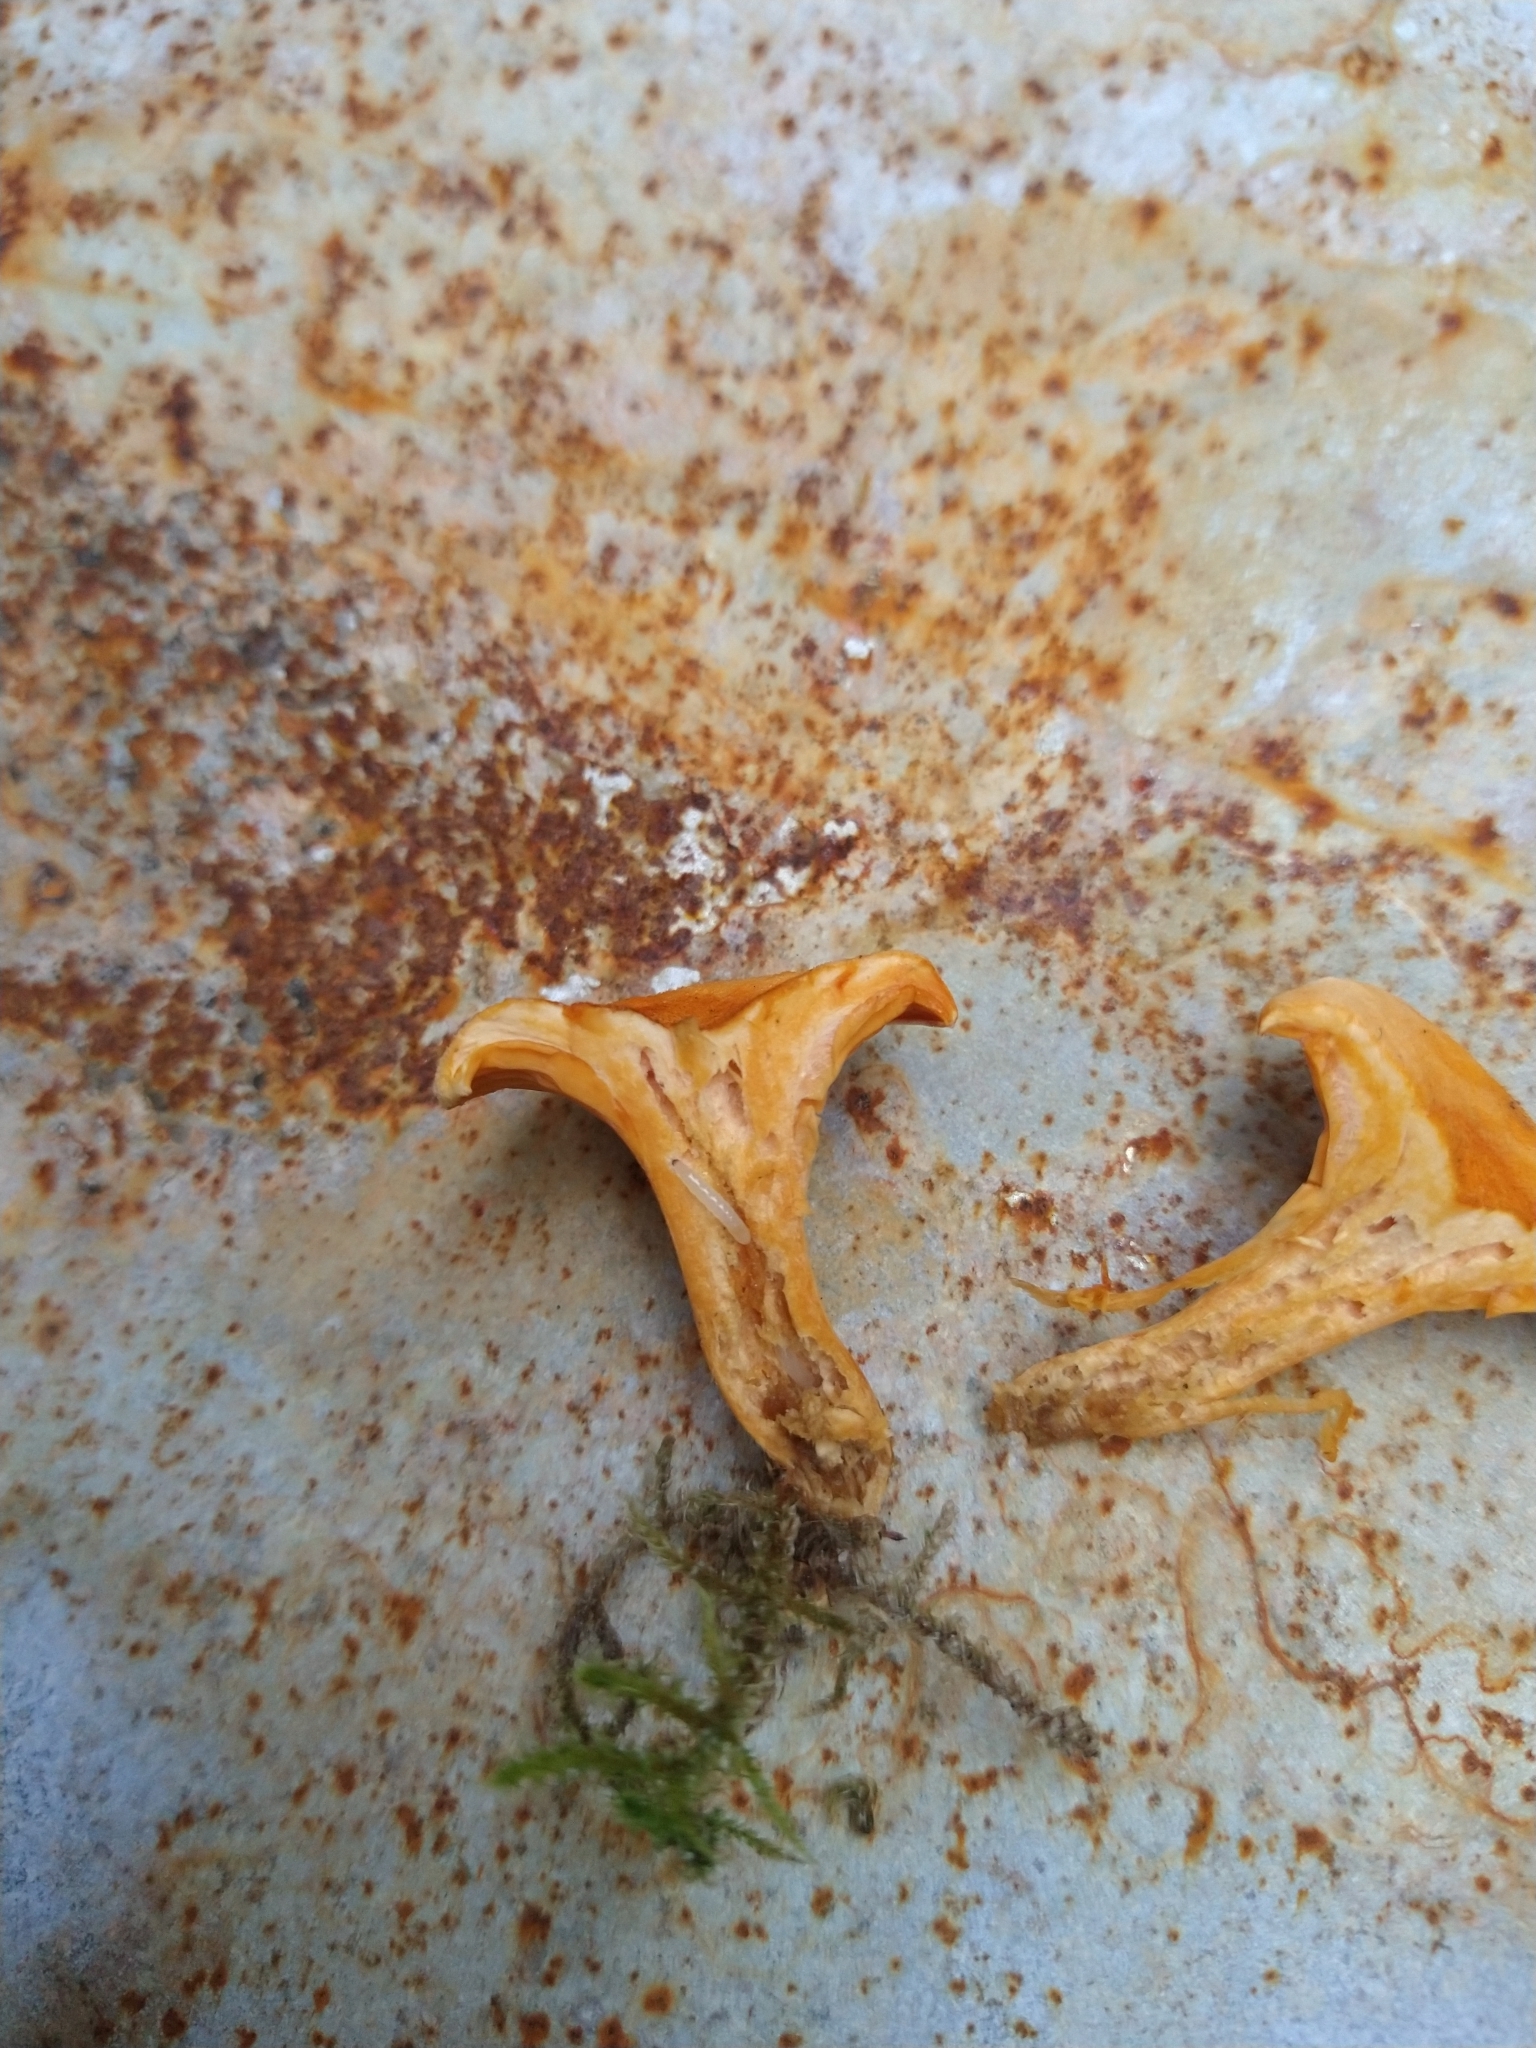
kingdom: Fungi
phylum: Basidiomycota
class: Agaricomycetes
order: Boletales
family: Hygrophoropsidaceae
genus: Hygrophoropsis
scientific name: Hygrophoropsis aurantiaca
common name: False chanterelle
